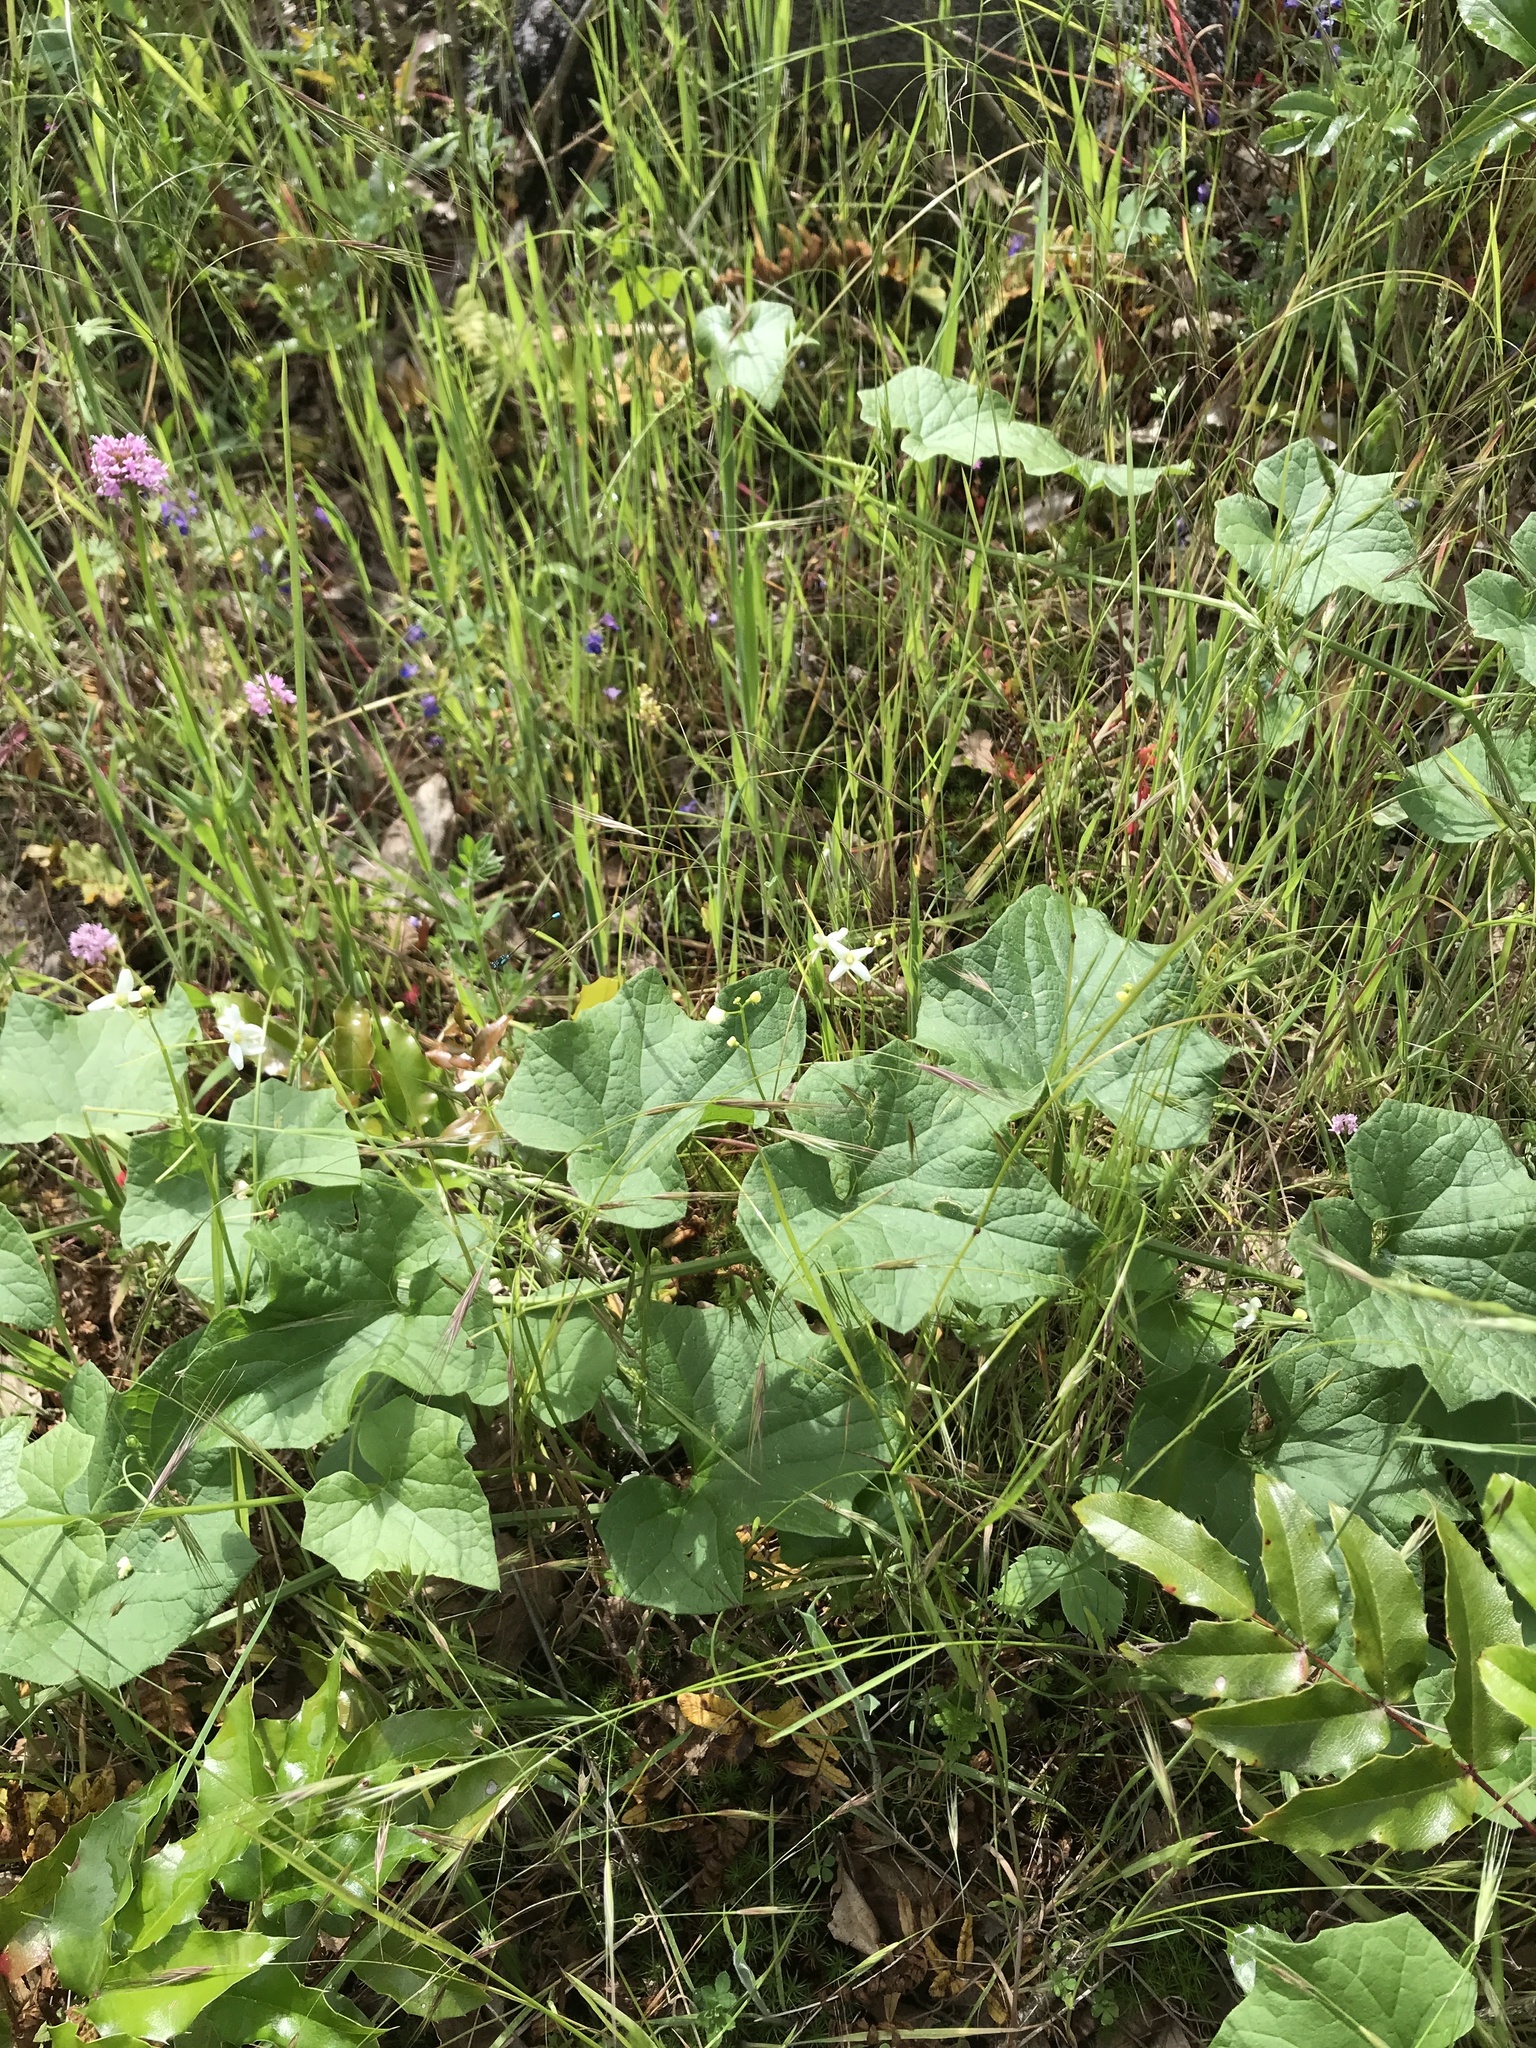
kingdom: Plantae
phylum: Tracheophyta
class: Magnoliopsida
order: Cucurbitales
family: Cucurbitaceae
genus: Marah
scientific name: Marah oregana
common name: Coastal manroot
